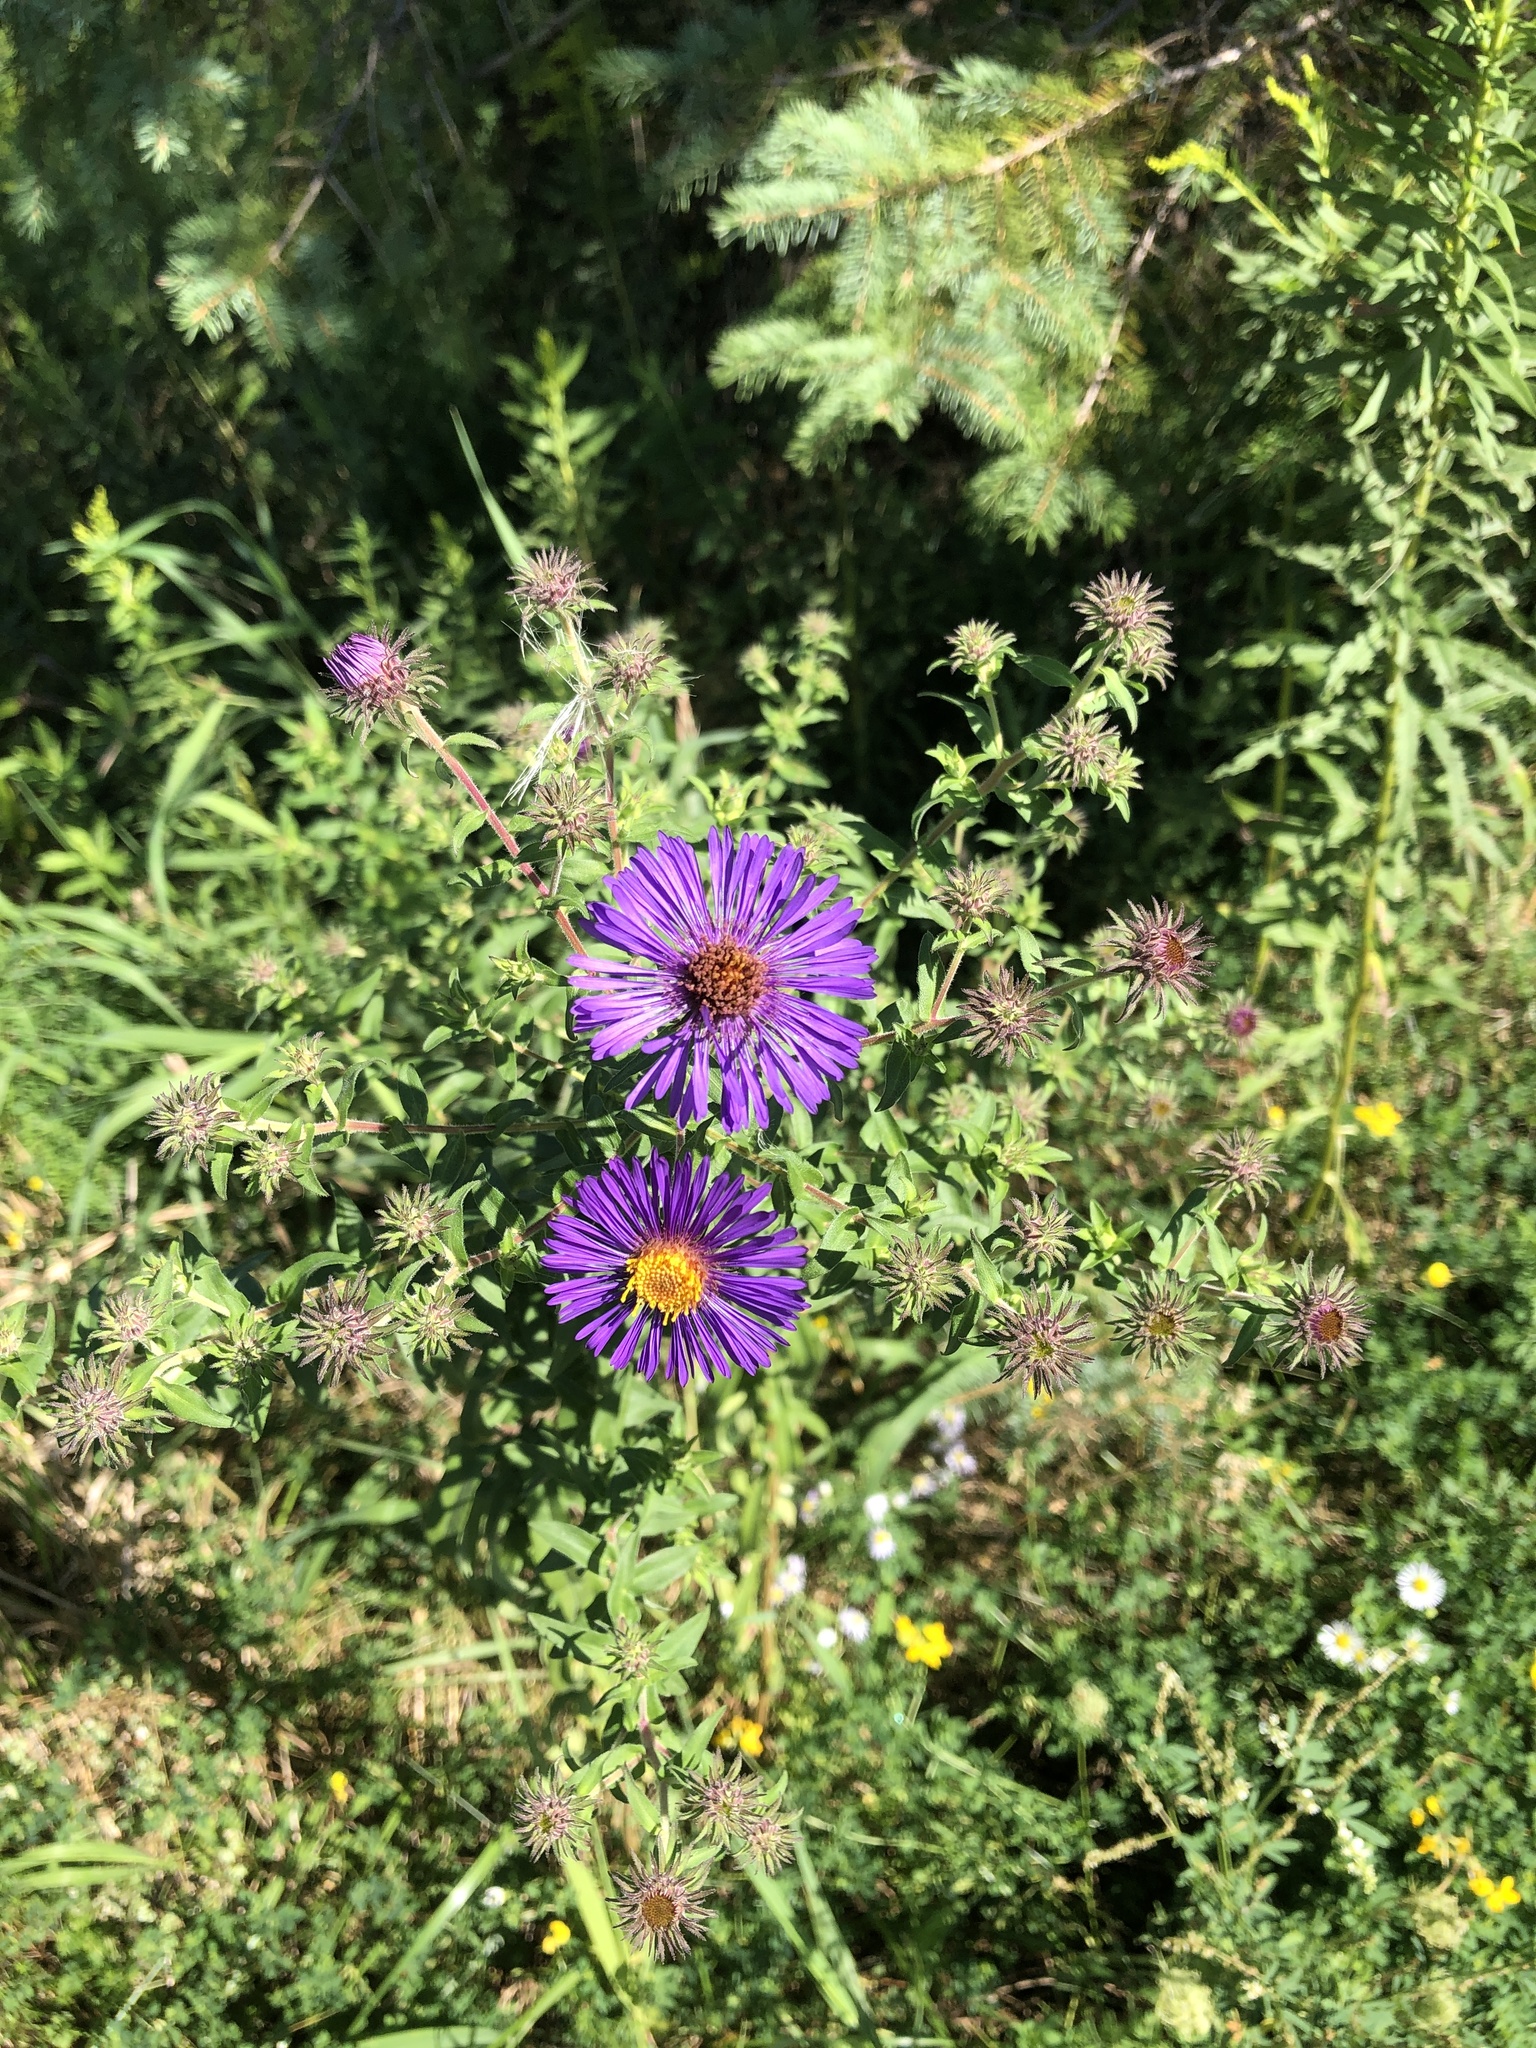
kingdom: Plantae
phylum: Tracheophyta
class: Magnoliopsida
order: Asterales
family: Asteraceae
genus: Symphyotrichum
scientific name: Symphyotrichum novae-angliae
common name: Michaelmas daisy
